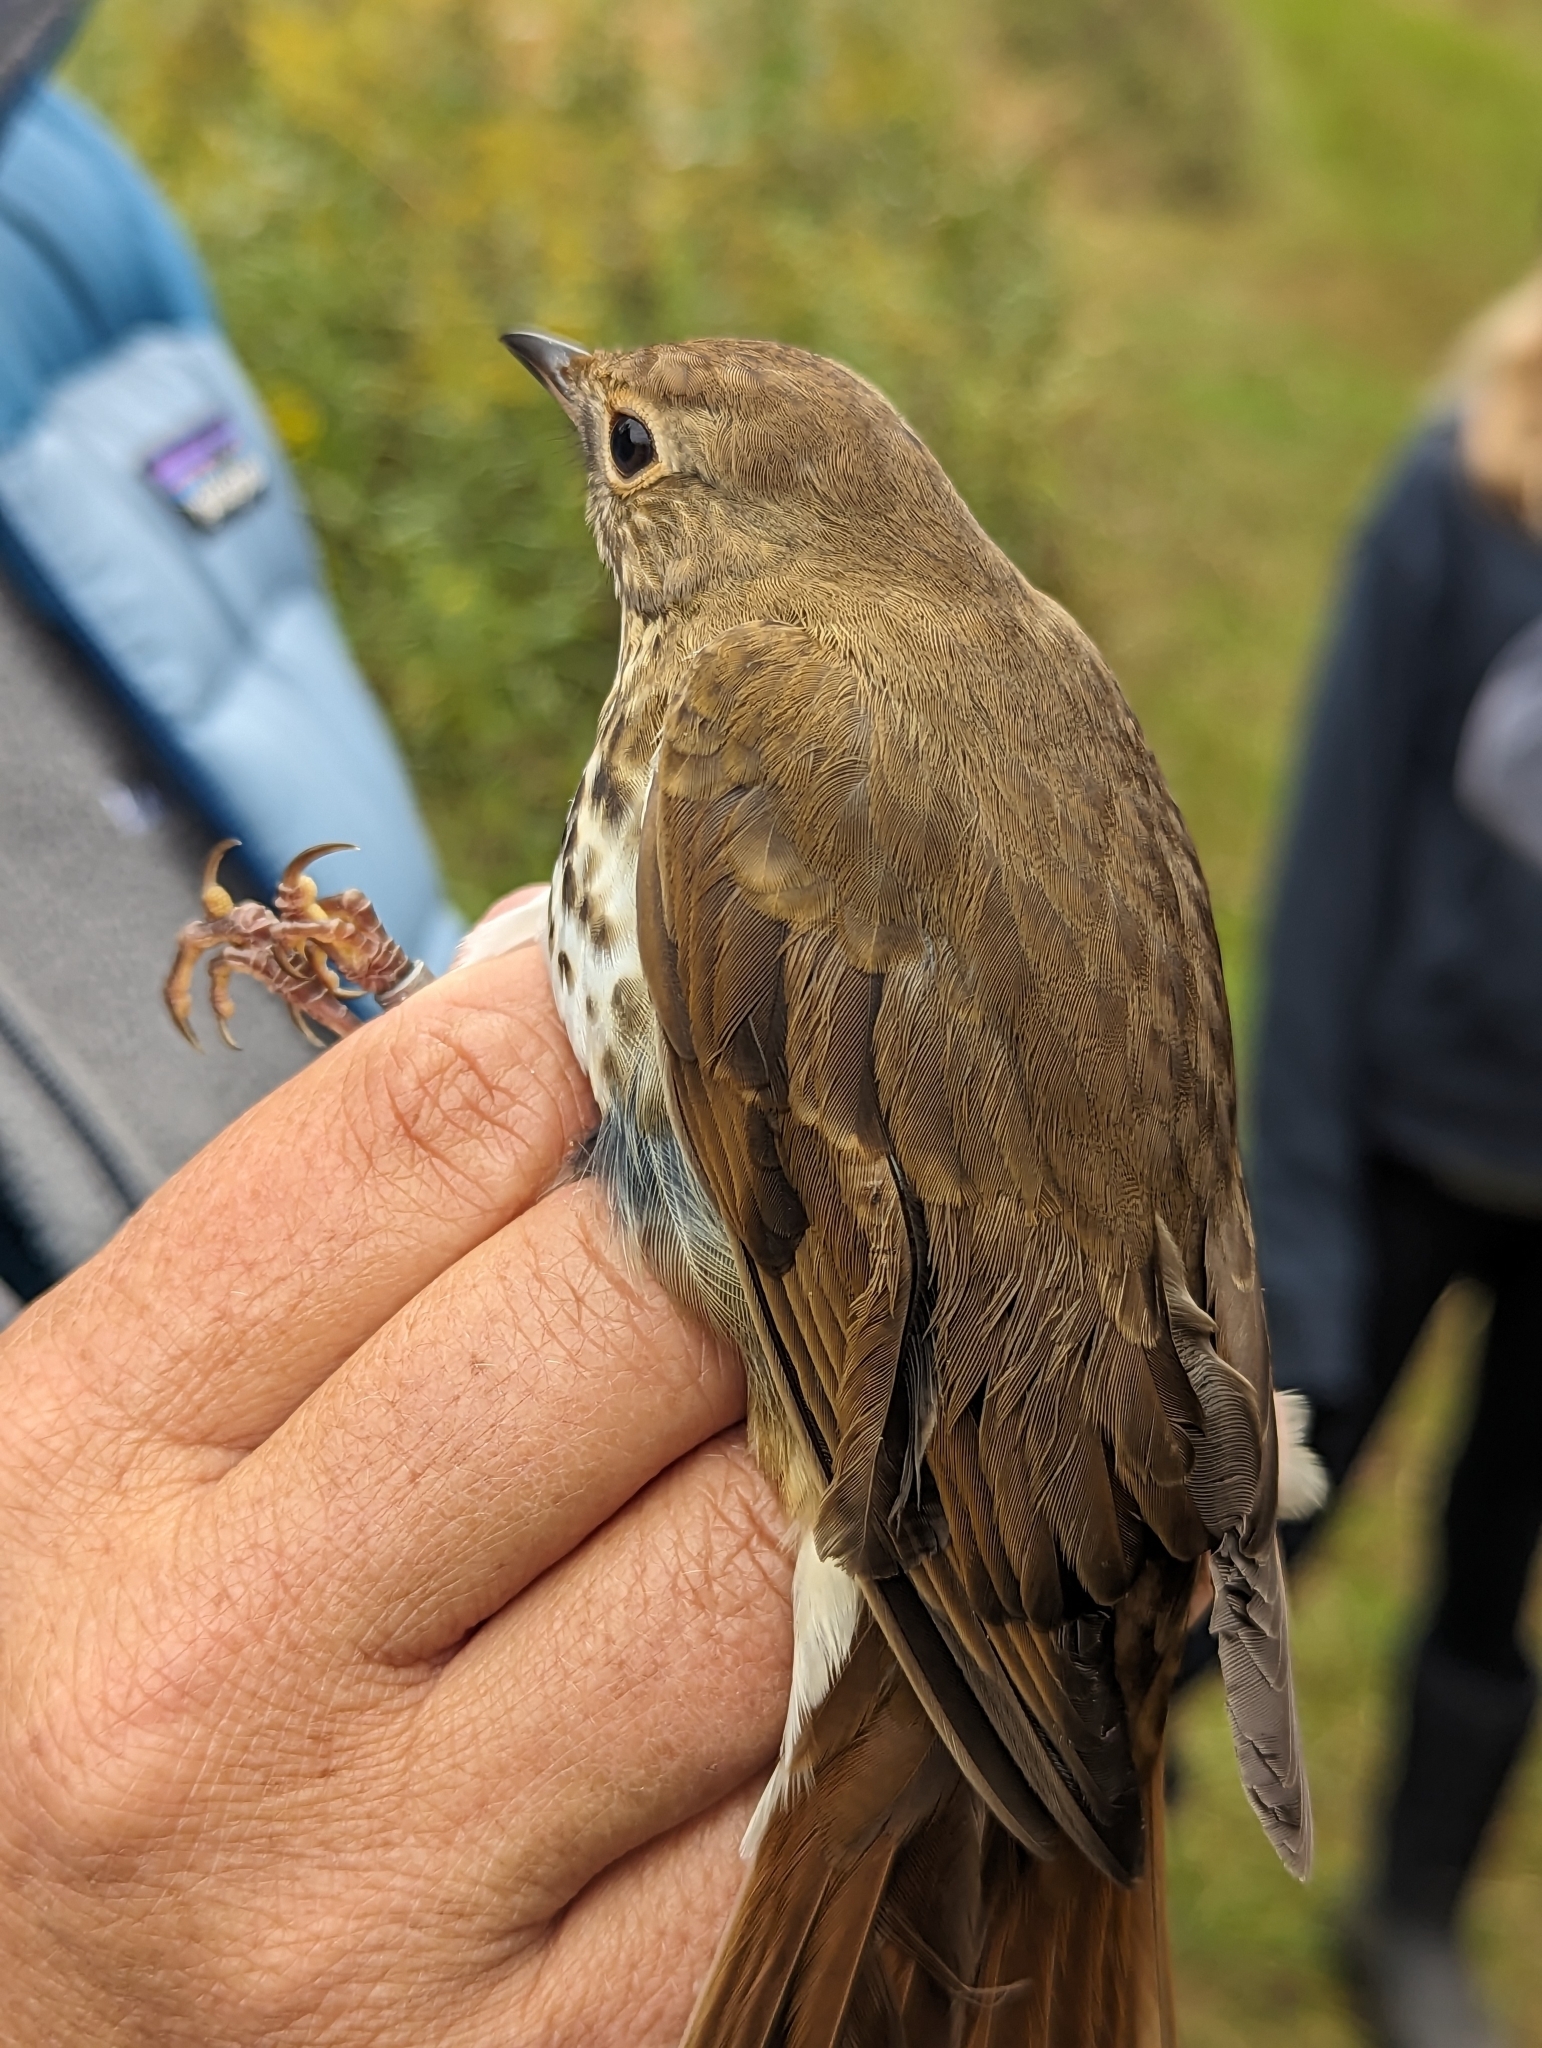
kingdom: Animalia
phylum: Chordata
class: Aves
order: Passeriformes
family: Turdidae
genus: Catharus
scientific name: Catharus guttatus
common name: Hermit thrush
